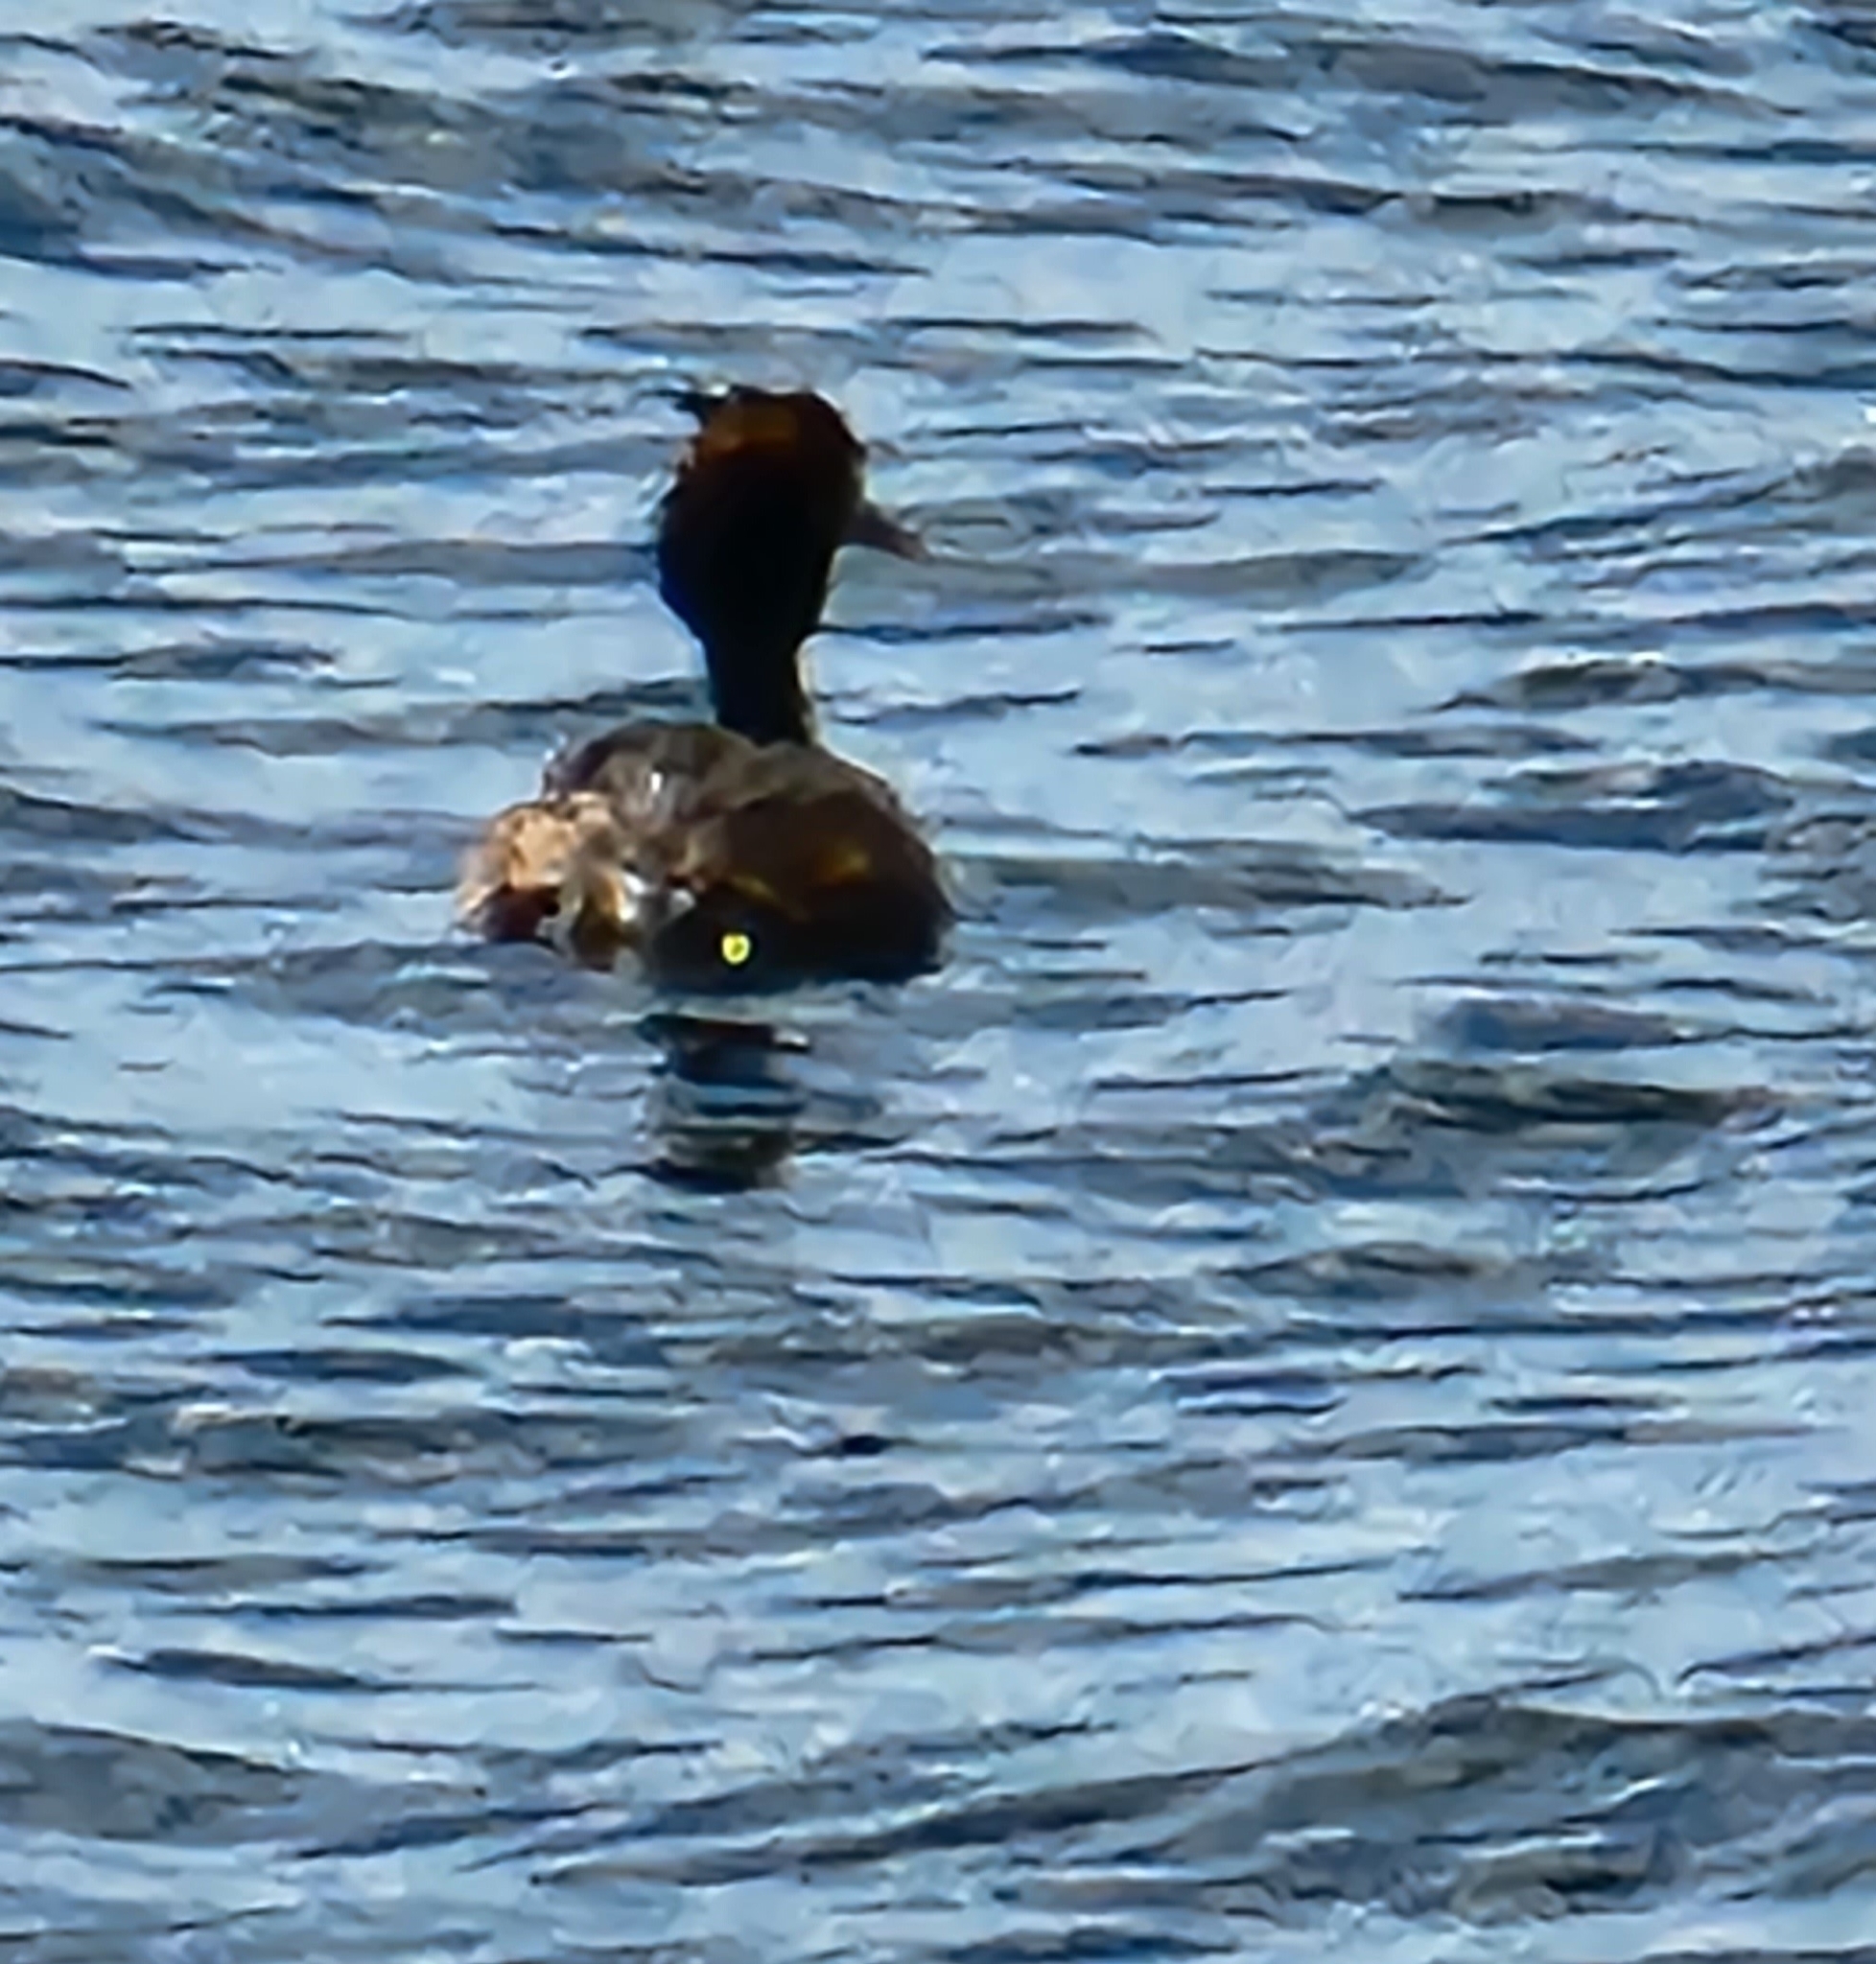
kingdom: Animalia
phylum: Chordata
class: Aves
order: Podicipediformes
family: Podicipedidae
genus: Podiceps
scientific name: Podiceps cristatus
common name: Great crested grebe
